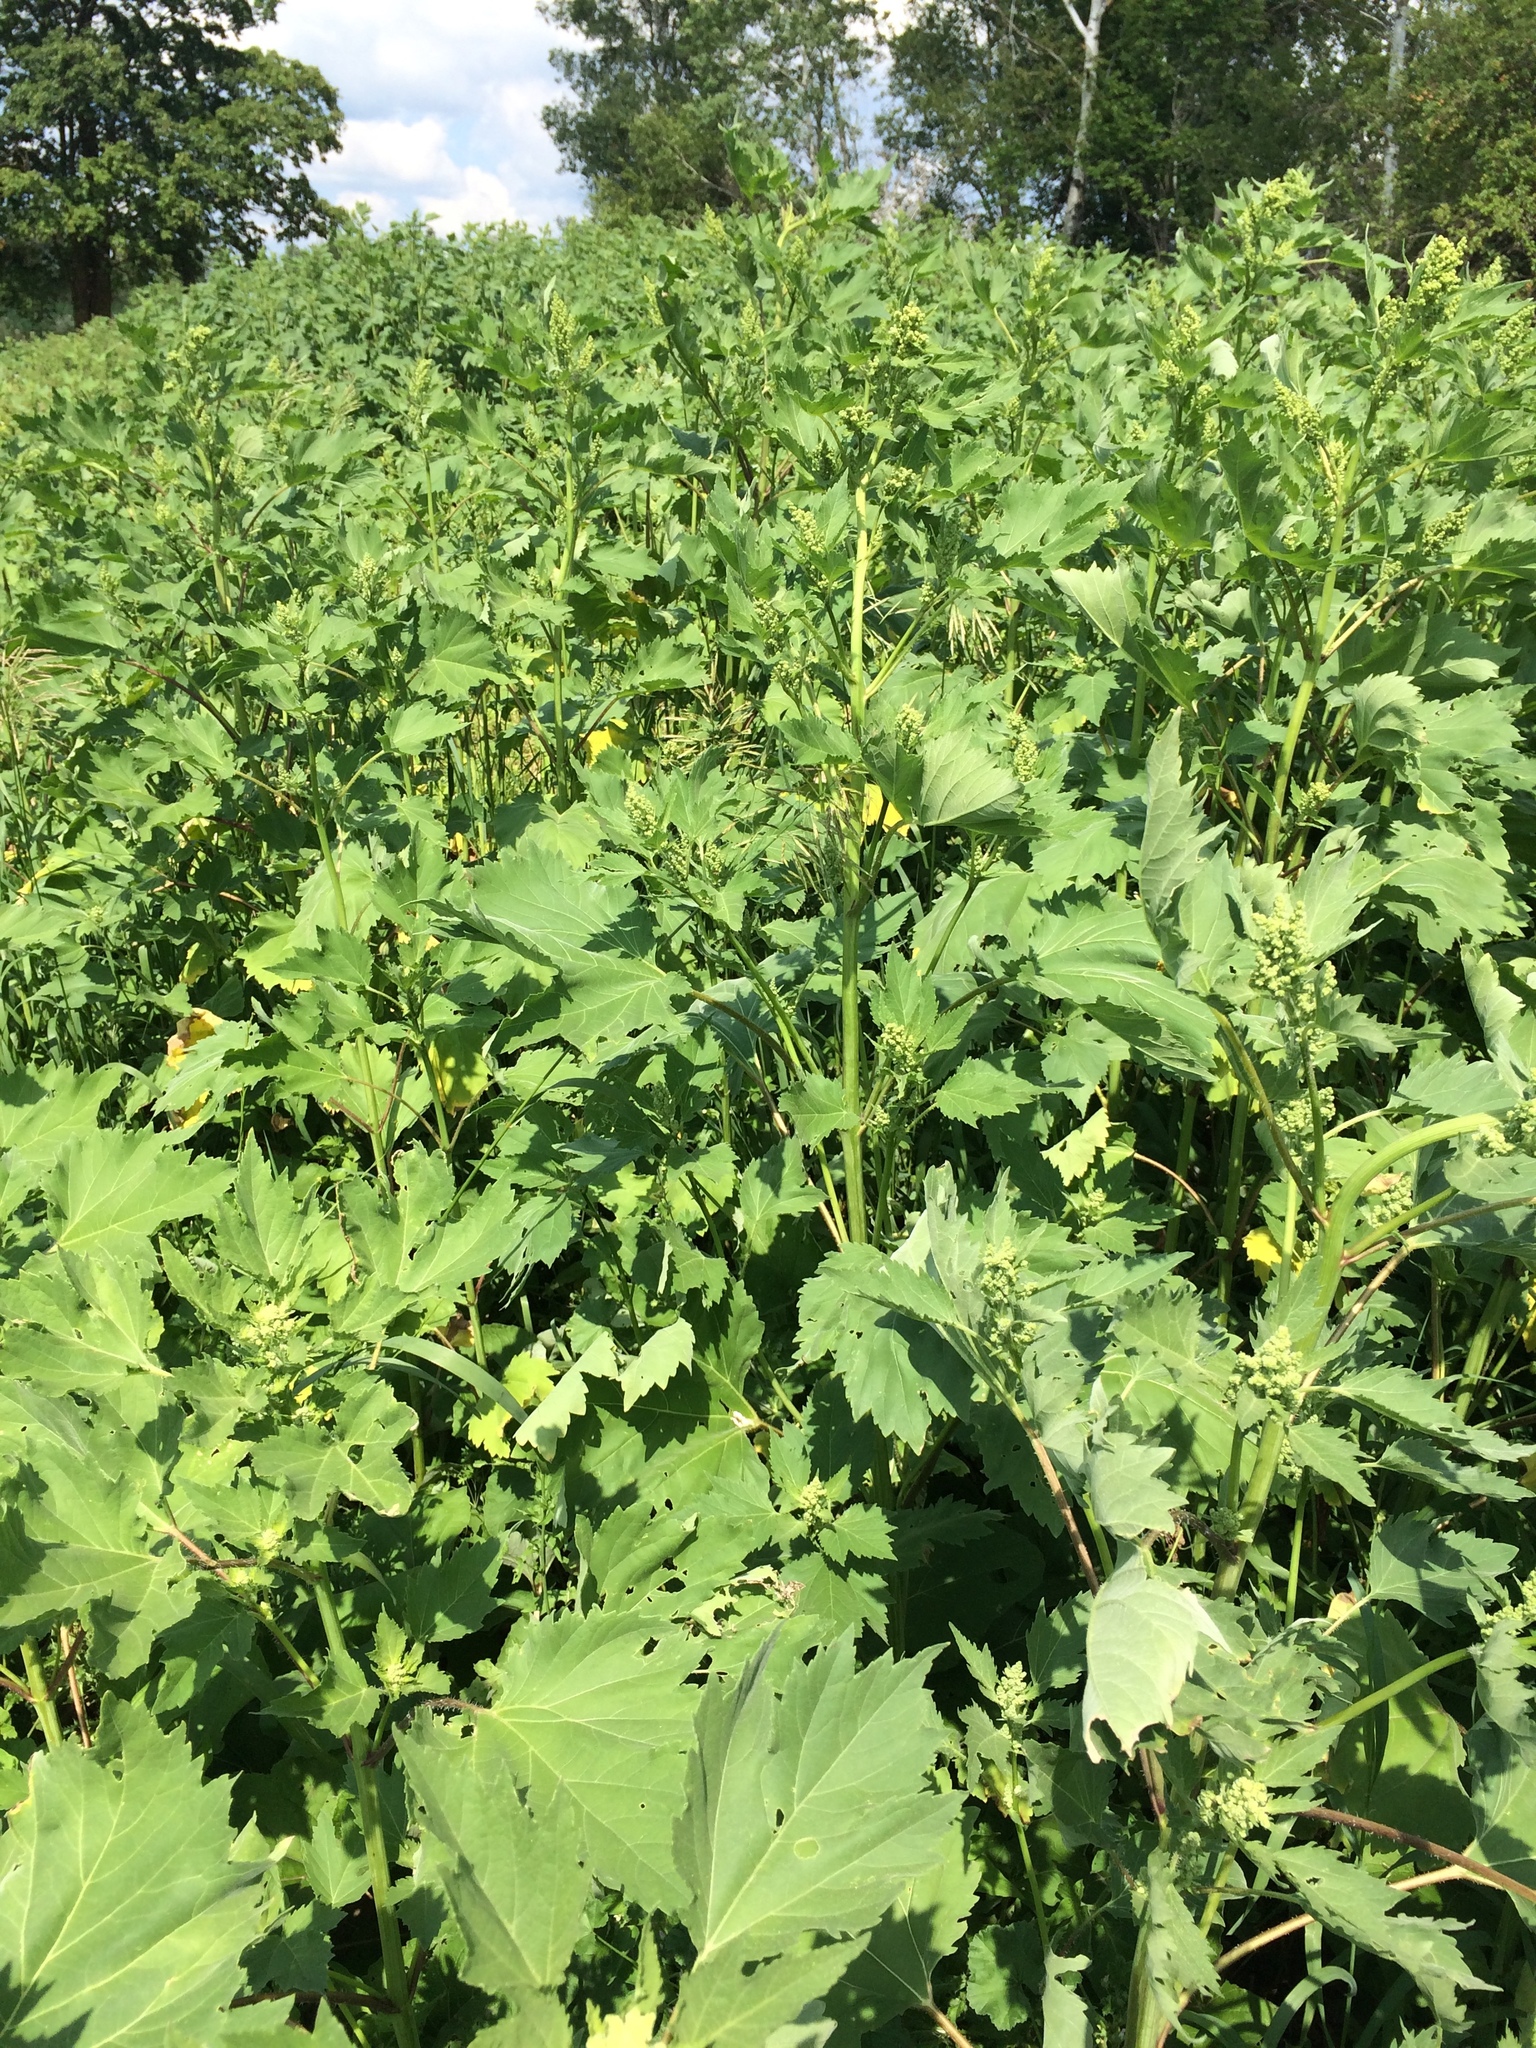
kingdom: Plantae
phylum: Tracheophyta
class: Magnoliopsida
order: Asterales
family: Asteraceae
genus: Cyclachaena
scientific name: Cyclachaena xanthiifolia
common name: Giant sumpweed
